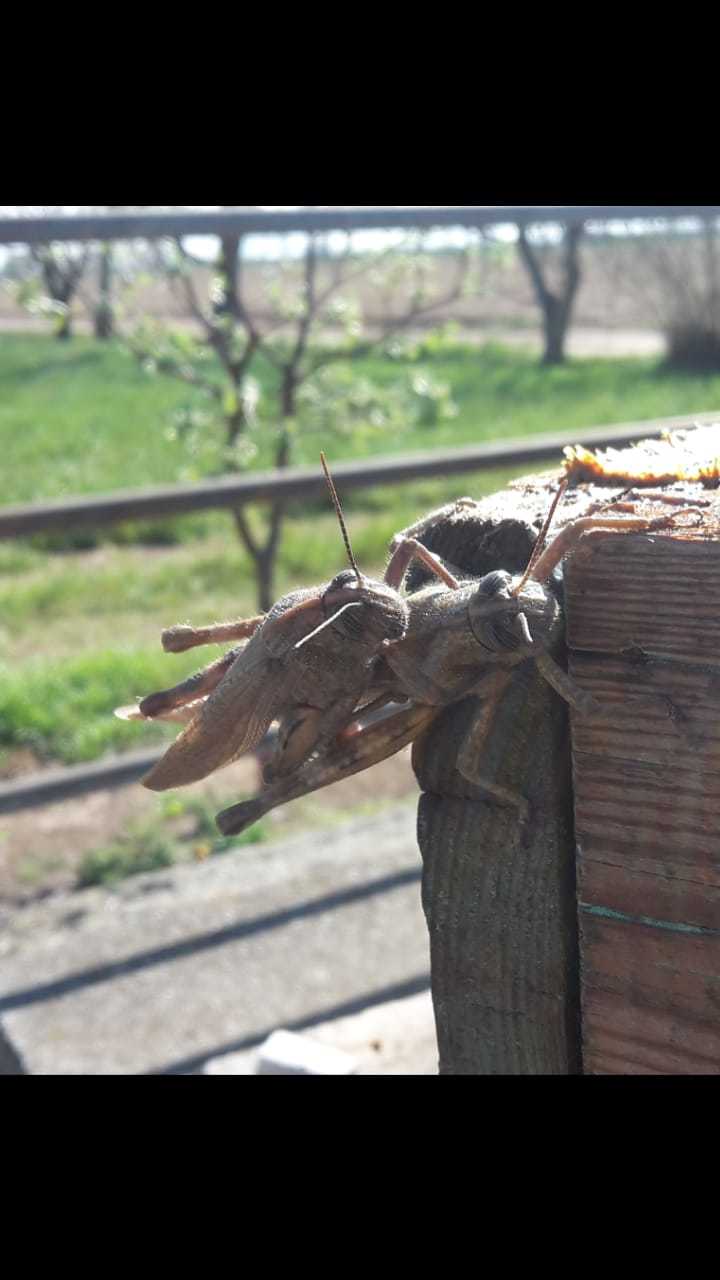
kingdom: Animalia
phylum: Arthropoda
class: Insecta
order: Orthoptera
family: Acrididae
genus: Anacridium
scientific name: Anacridium aegyptium
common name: Egyptian grasshopper
